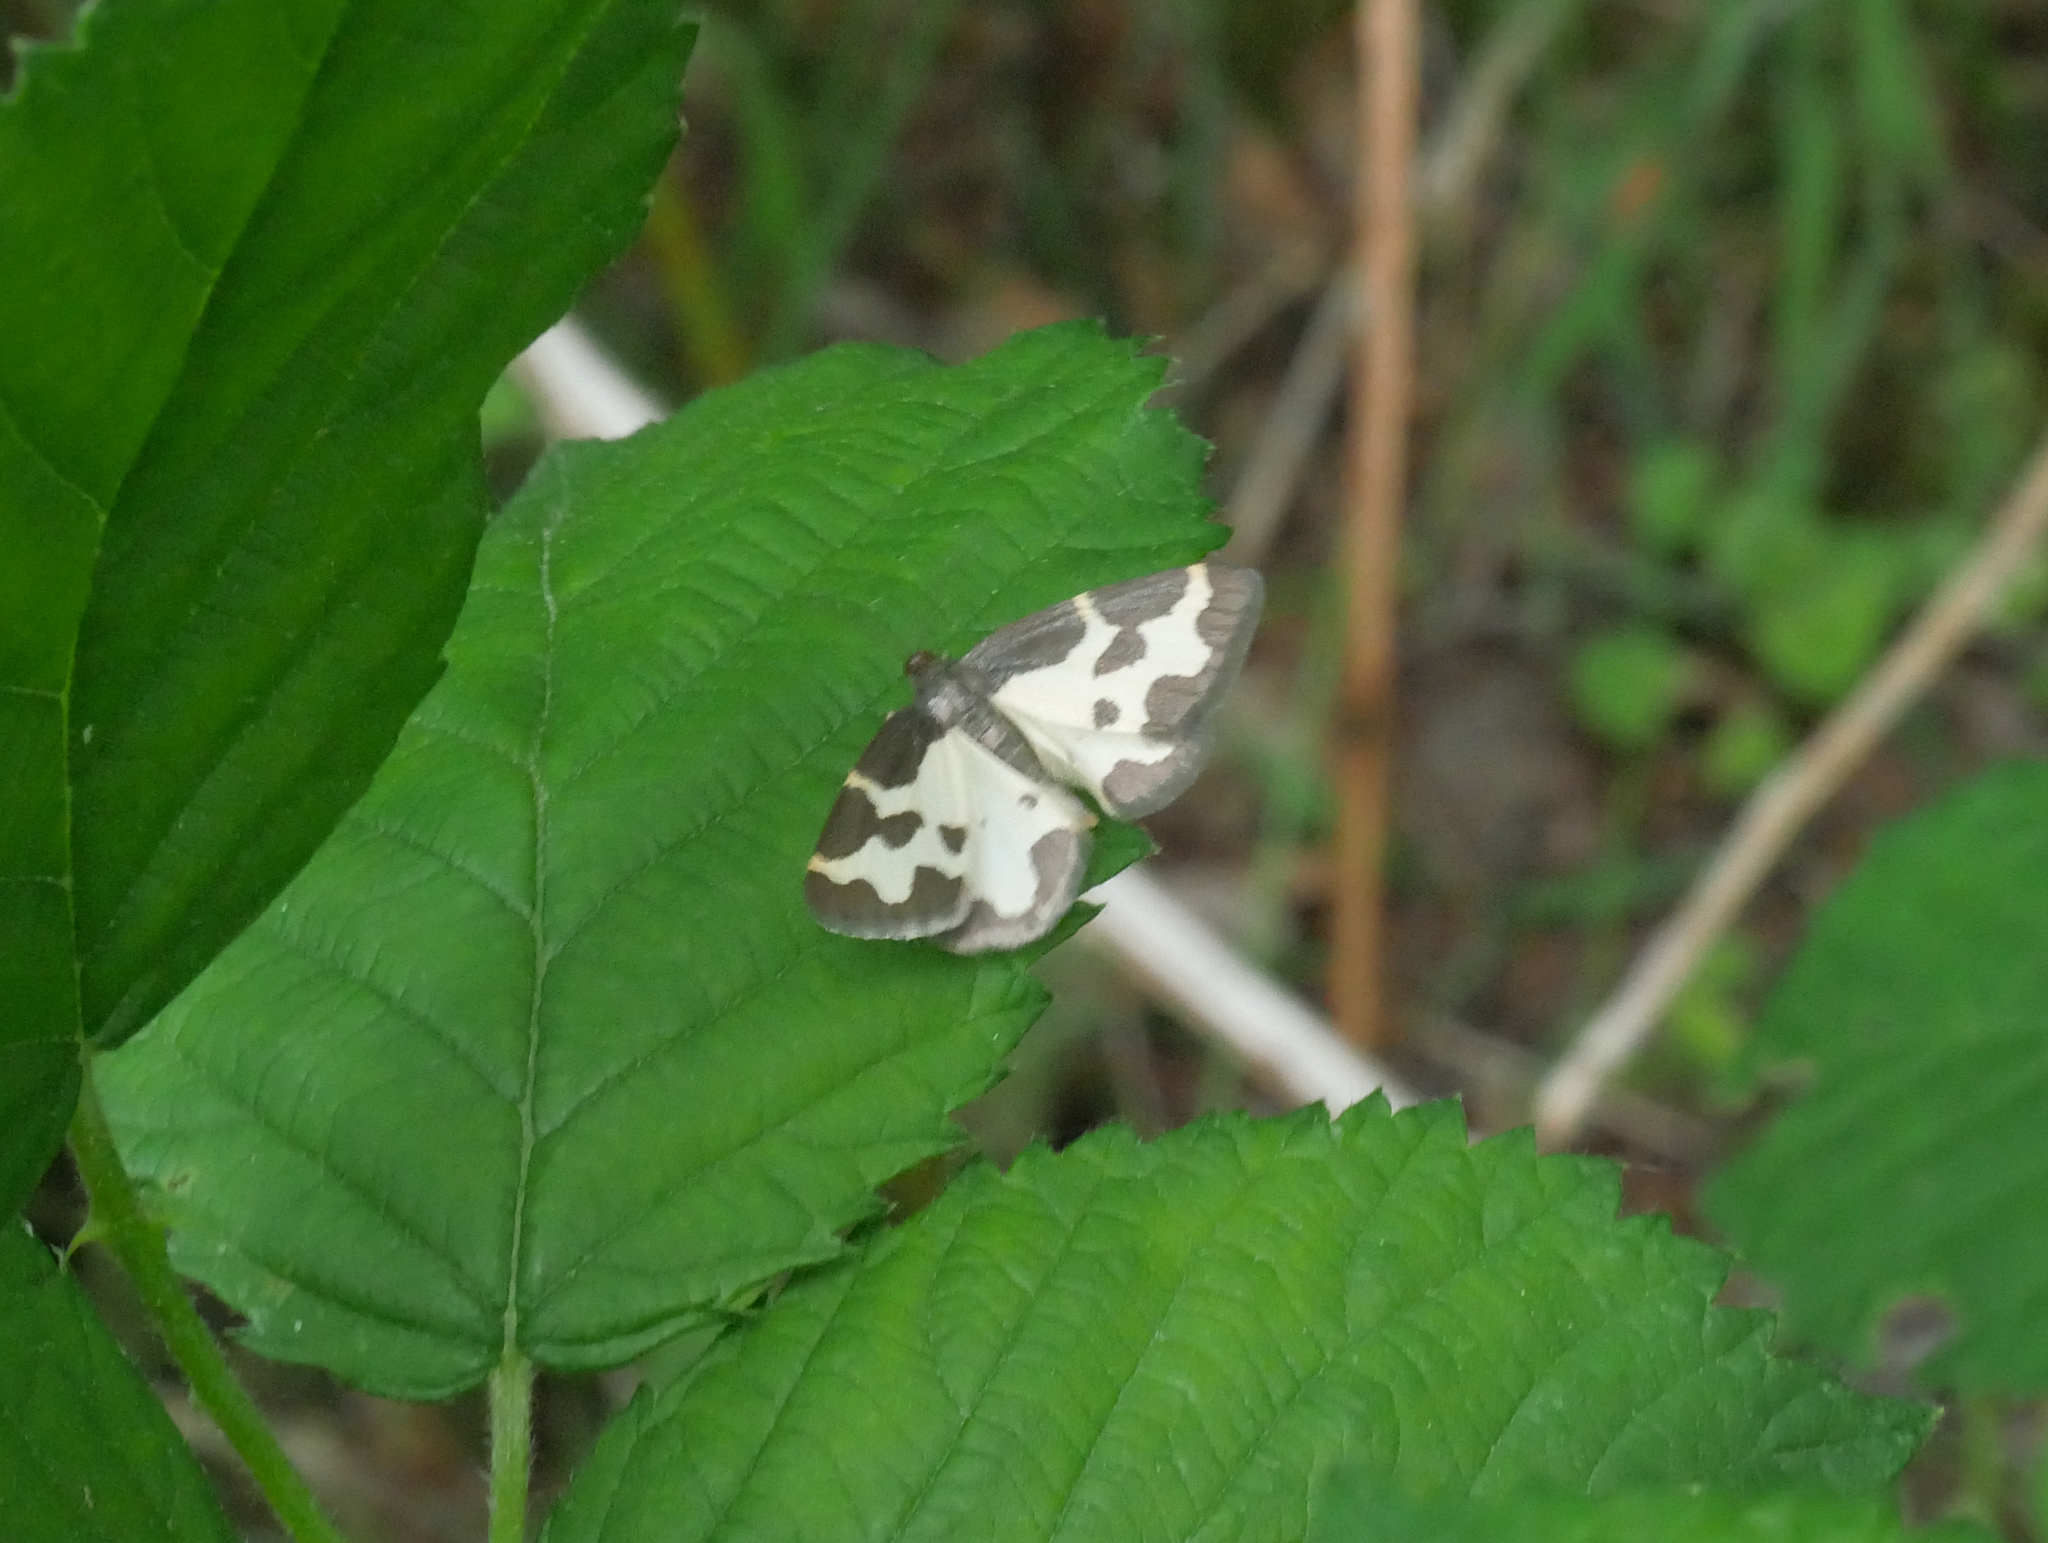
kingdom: Animalia
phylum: Arthropoda
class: Insecta
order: Lepidoptera
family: Geometridae
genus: Lomaspilis
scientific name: Lomaspilis marginata
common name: Clouded border
